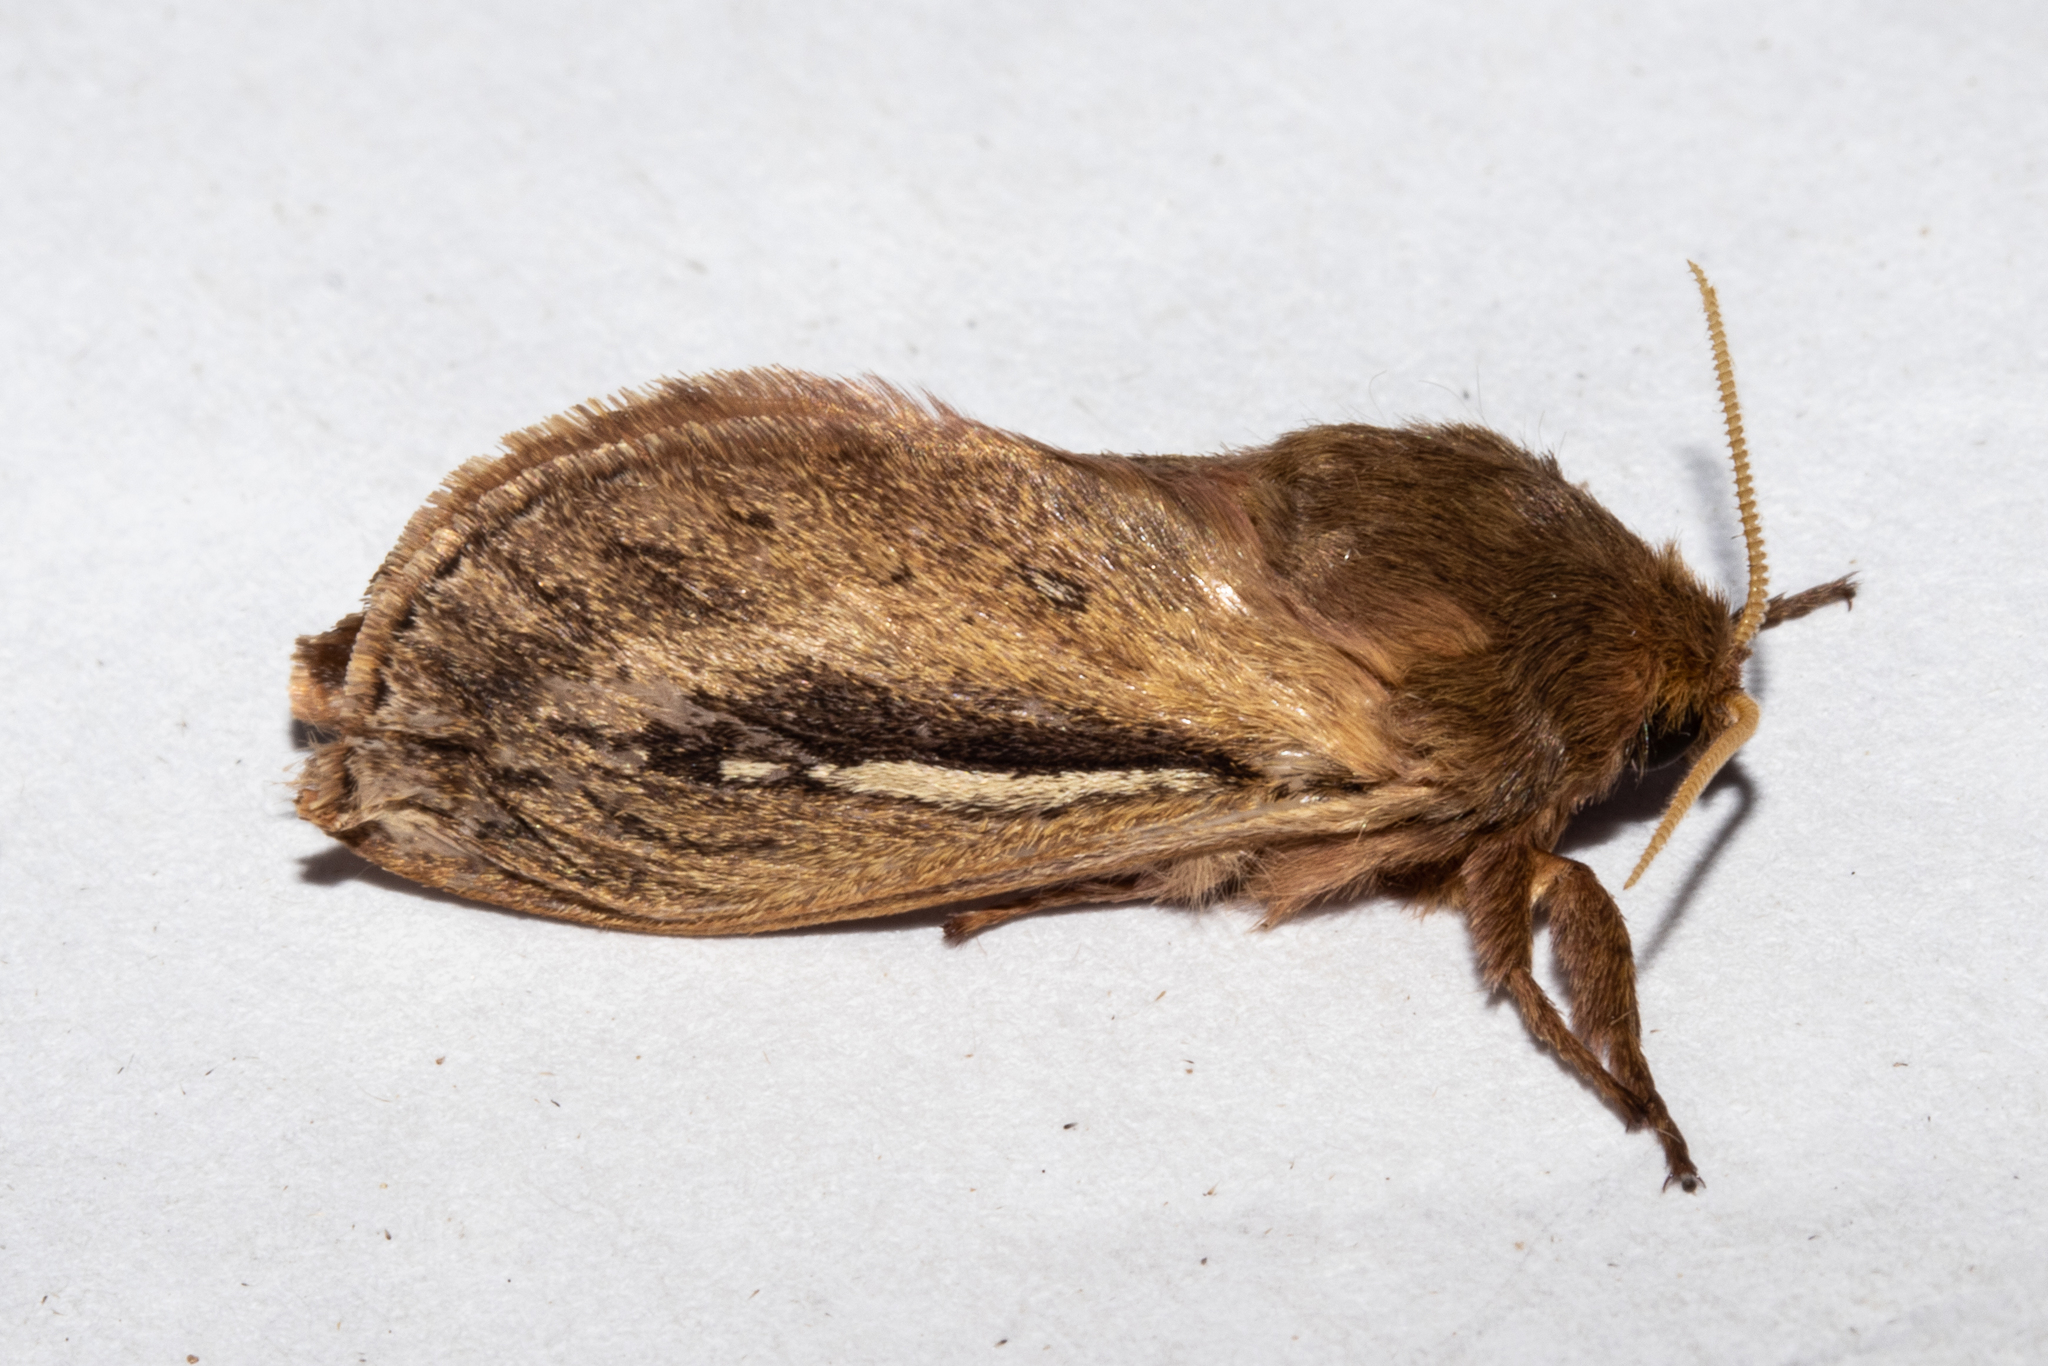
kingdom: Animalia
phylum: Arthropoda
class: Insecta
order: Lepidoptera
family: Hepialidae
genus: Wiseana
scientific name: Wiseana umbraculatus
